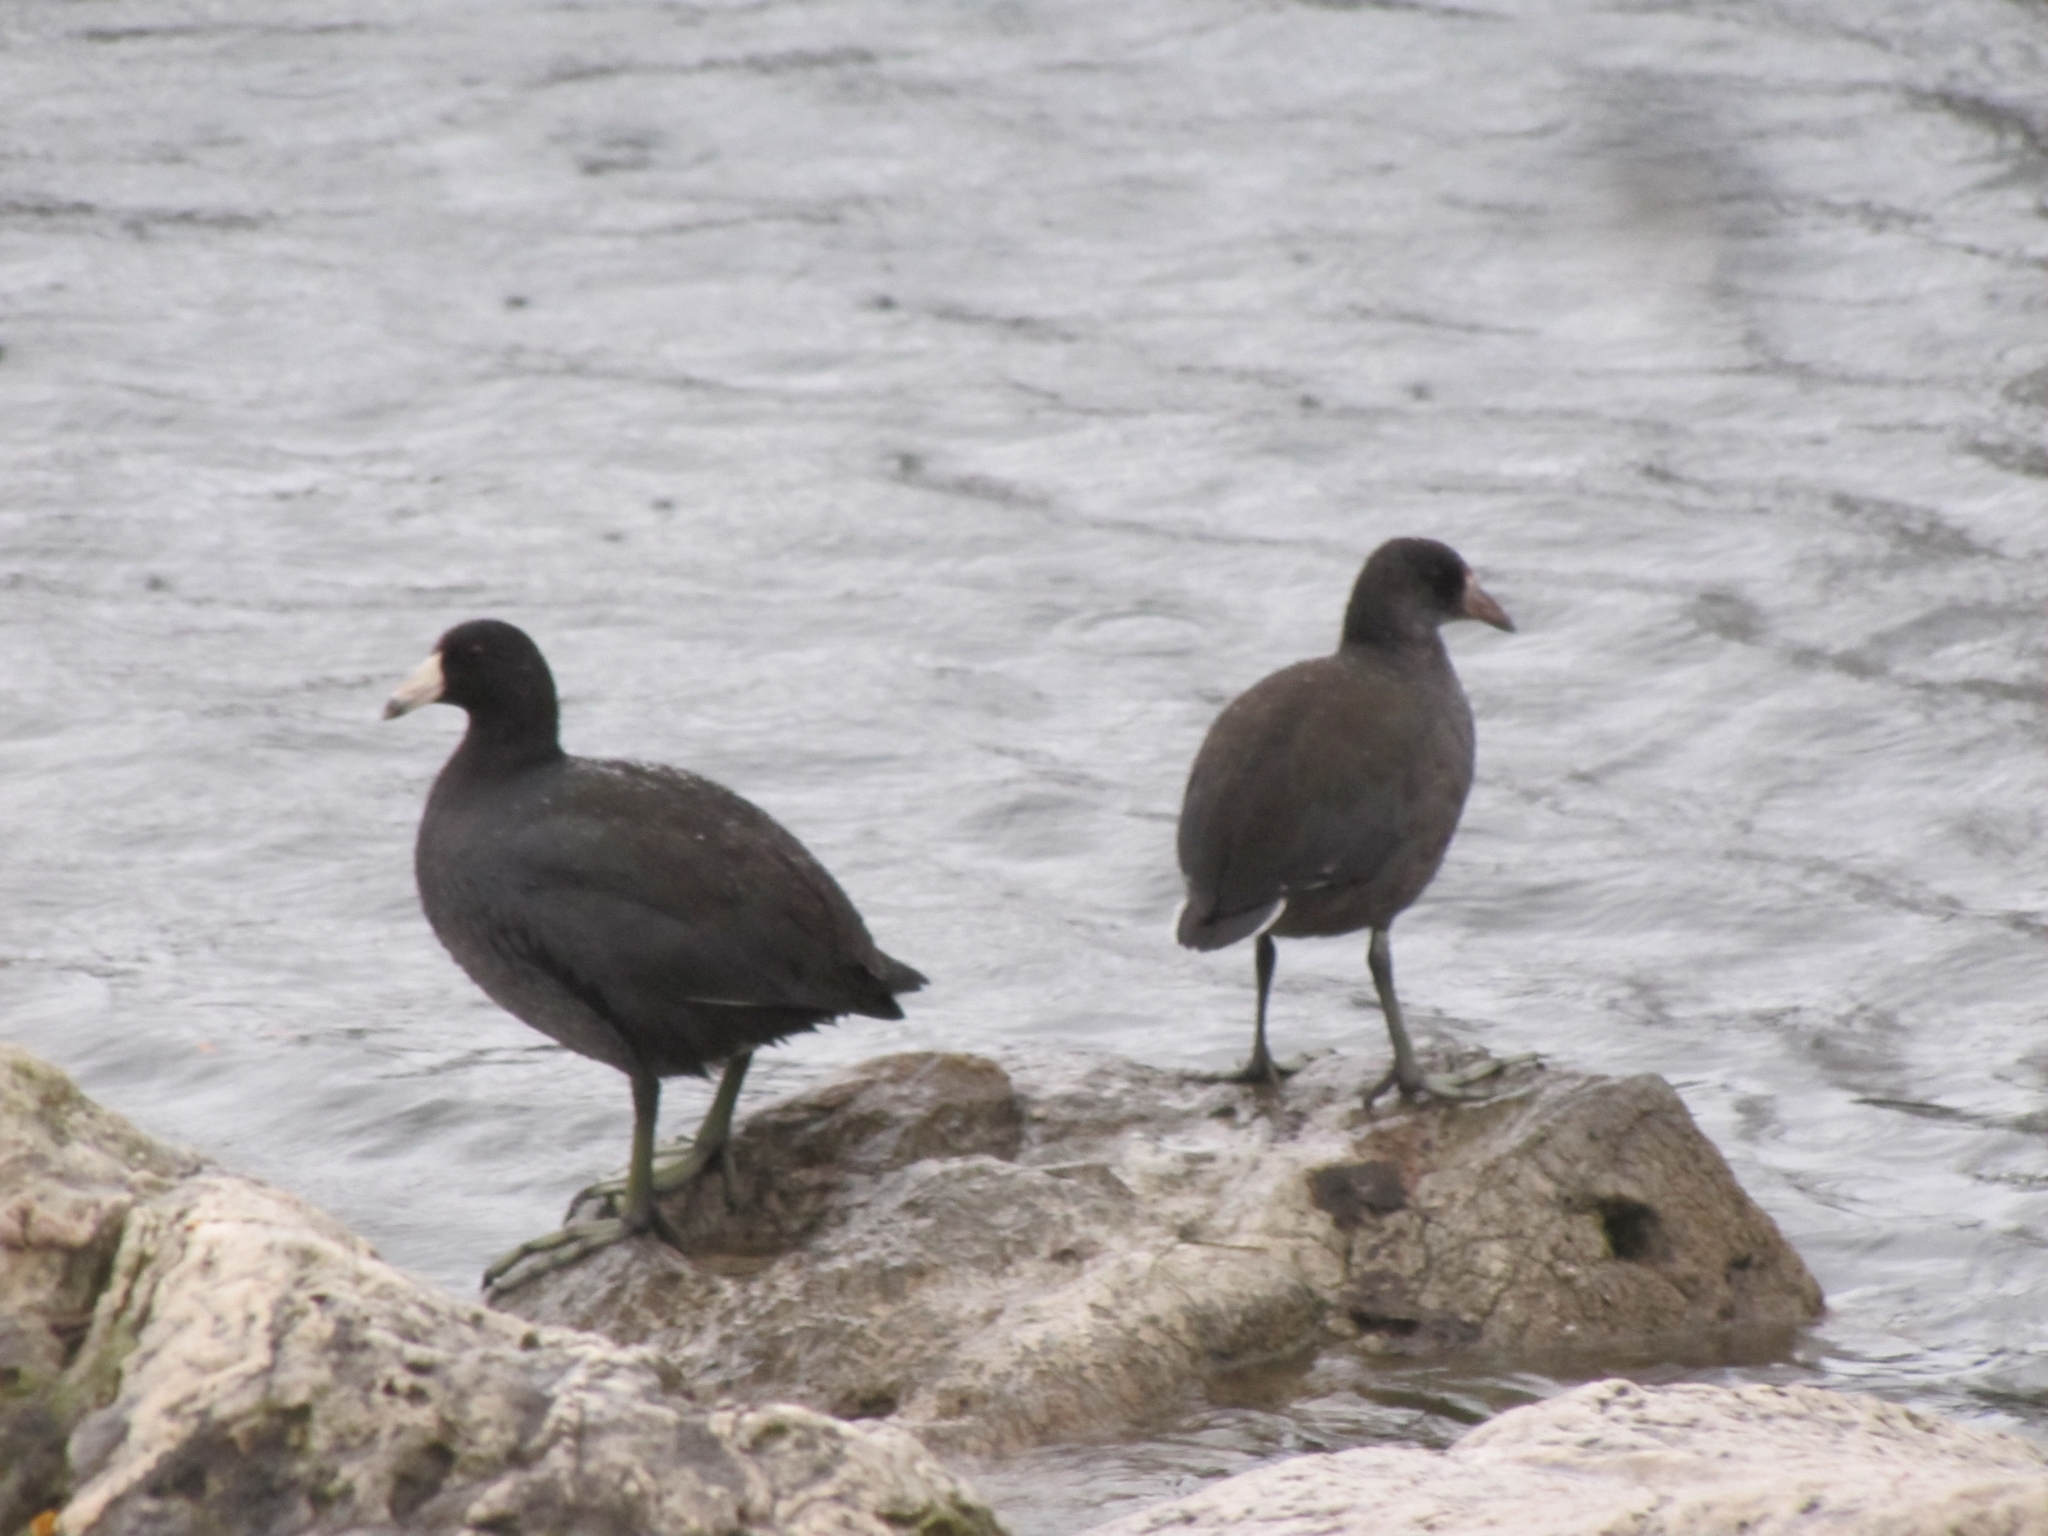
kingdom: Animalia
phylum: Chordata
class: Aves
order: Gruiformes
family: Rallidae
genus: Fulica
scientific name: Fulica americana
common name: American coot
